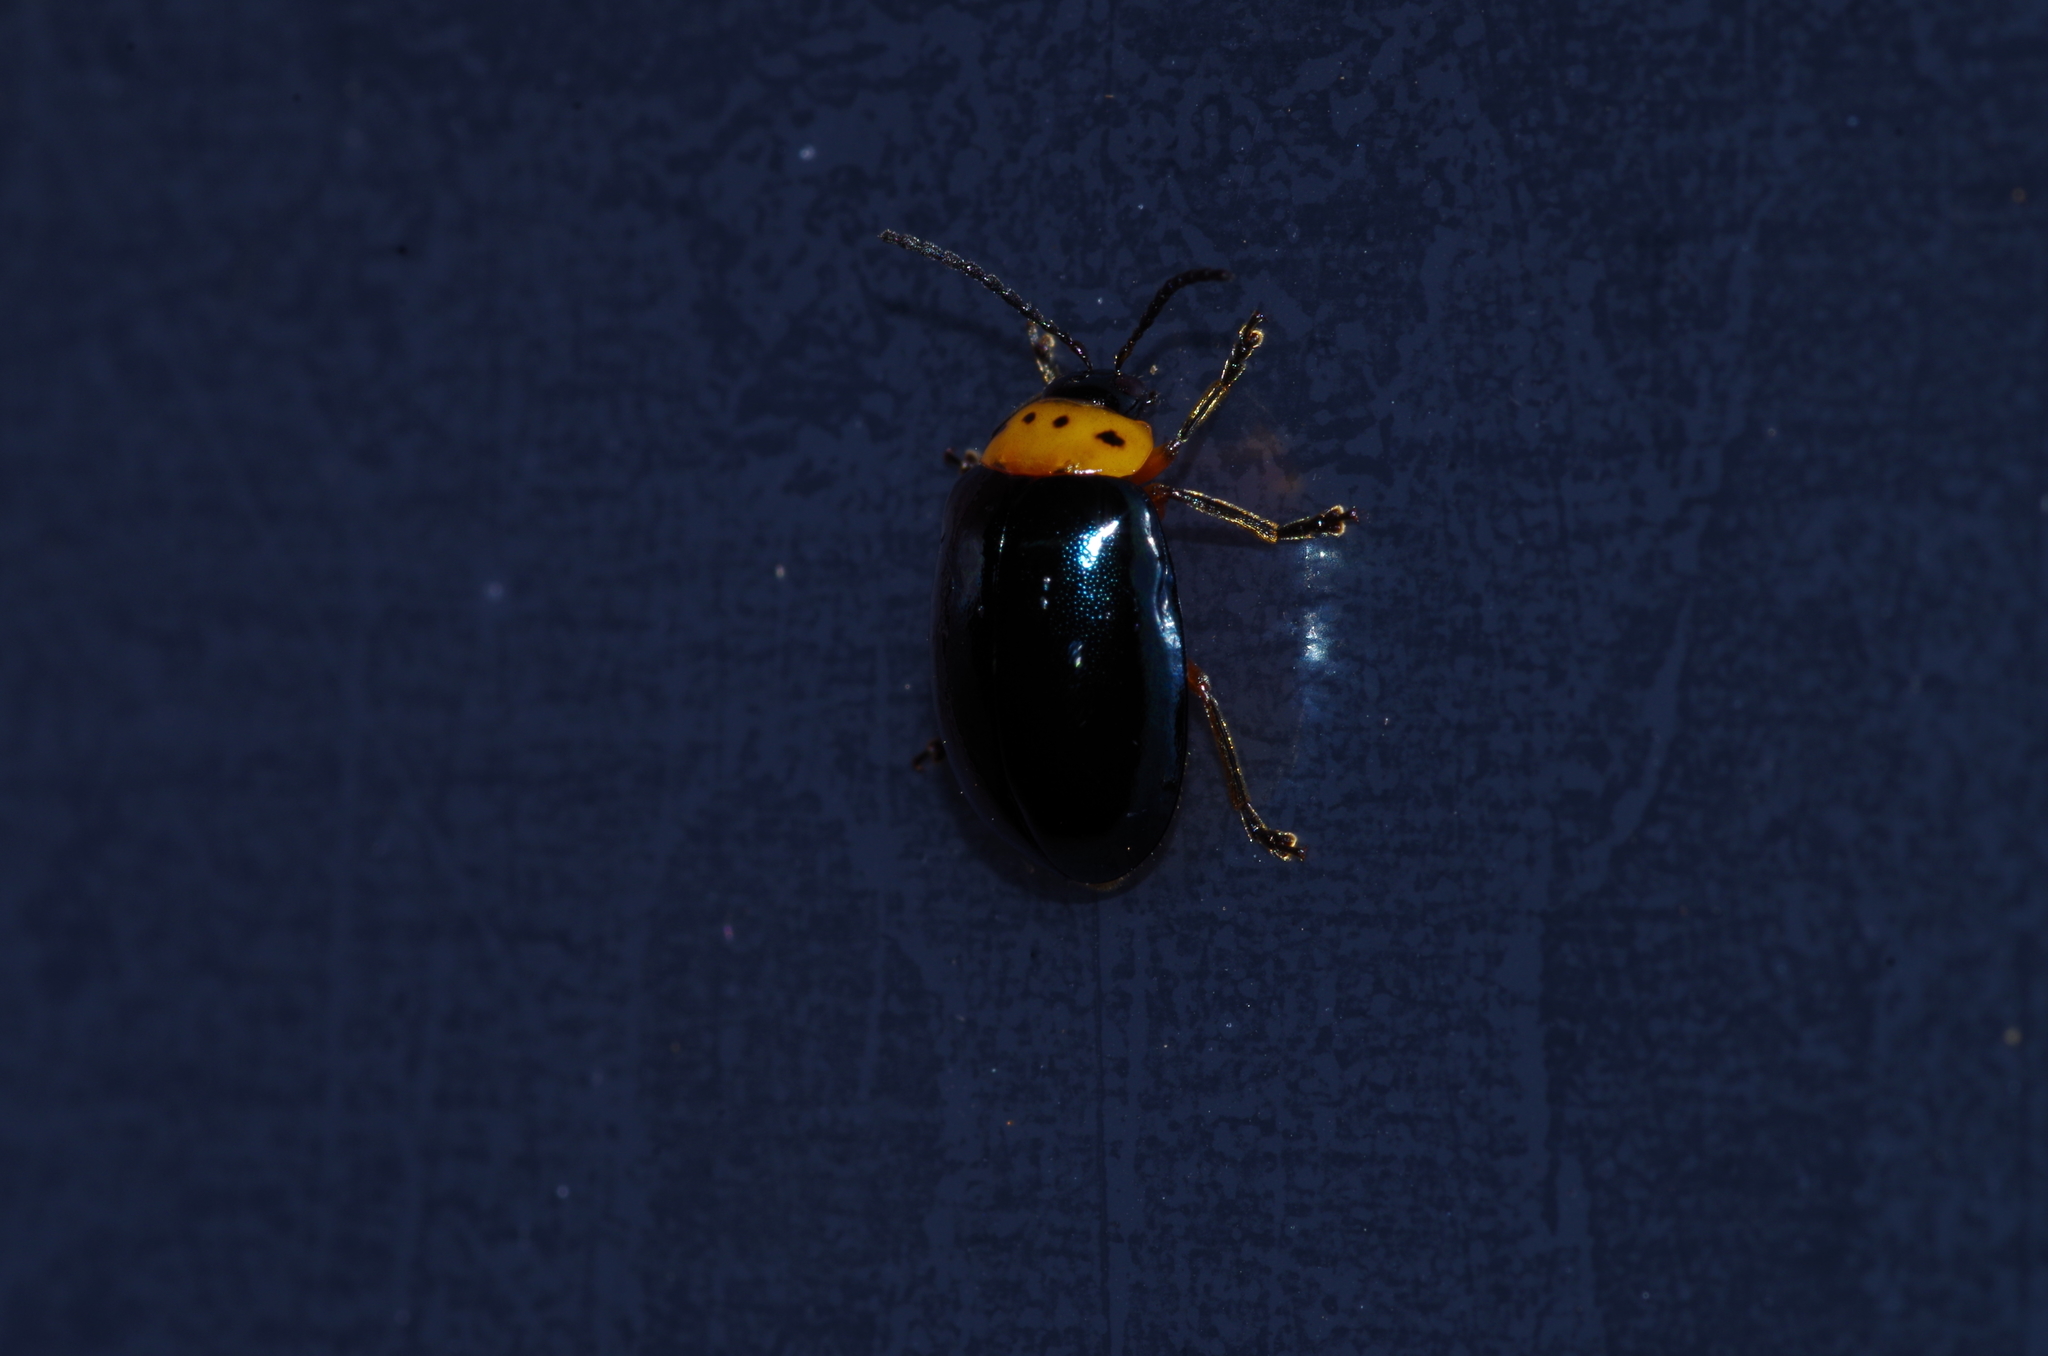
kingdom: Animalia
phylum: Arthropoda
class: Insecta
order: Coleoptera
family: Chrysomelidae
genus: Morphosphaera
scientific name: Morphosphaera caerulea
